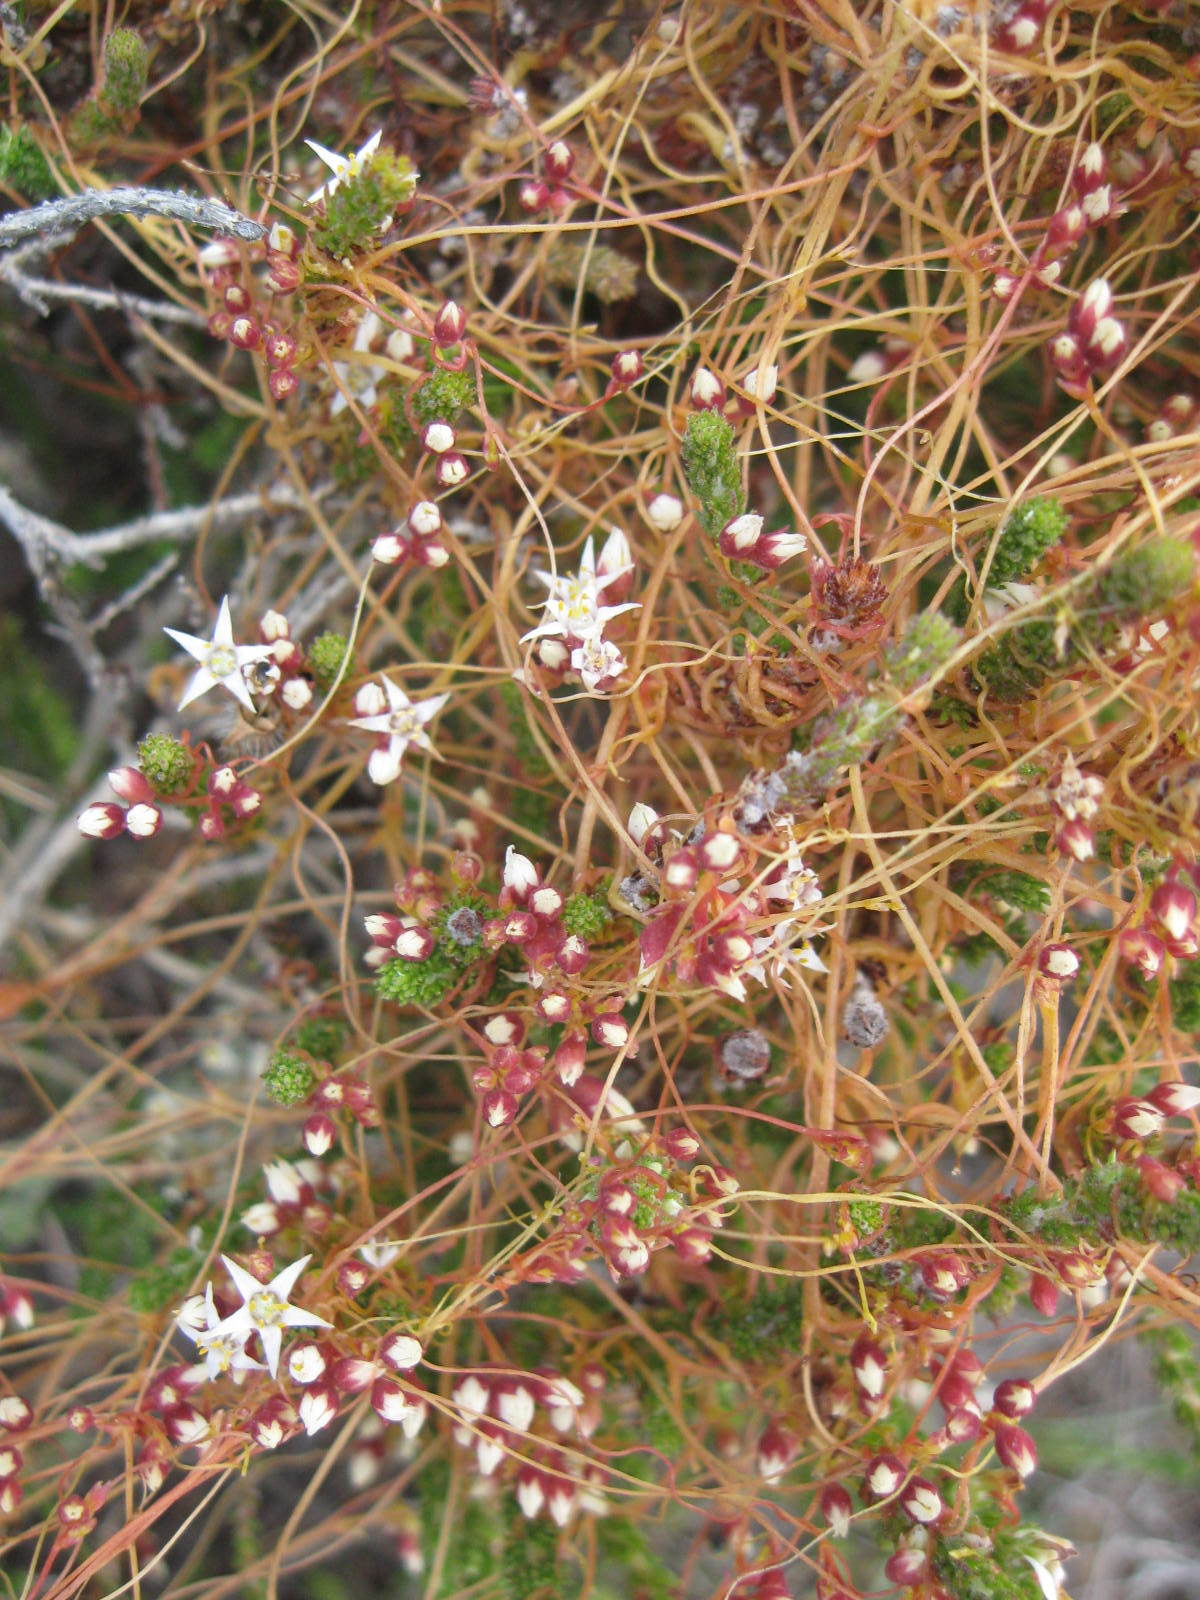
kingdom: Plantae
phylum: Tracheophyta
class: Magnoliopsida
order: Solanales
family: Convolvulaceae
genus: Cuscuta
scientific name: Cuscuta nitida
